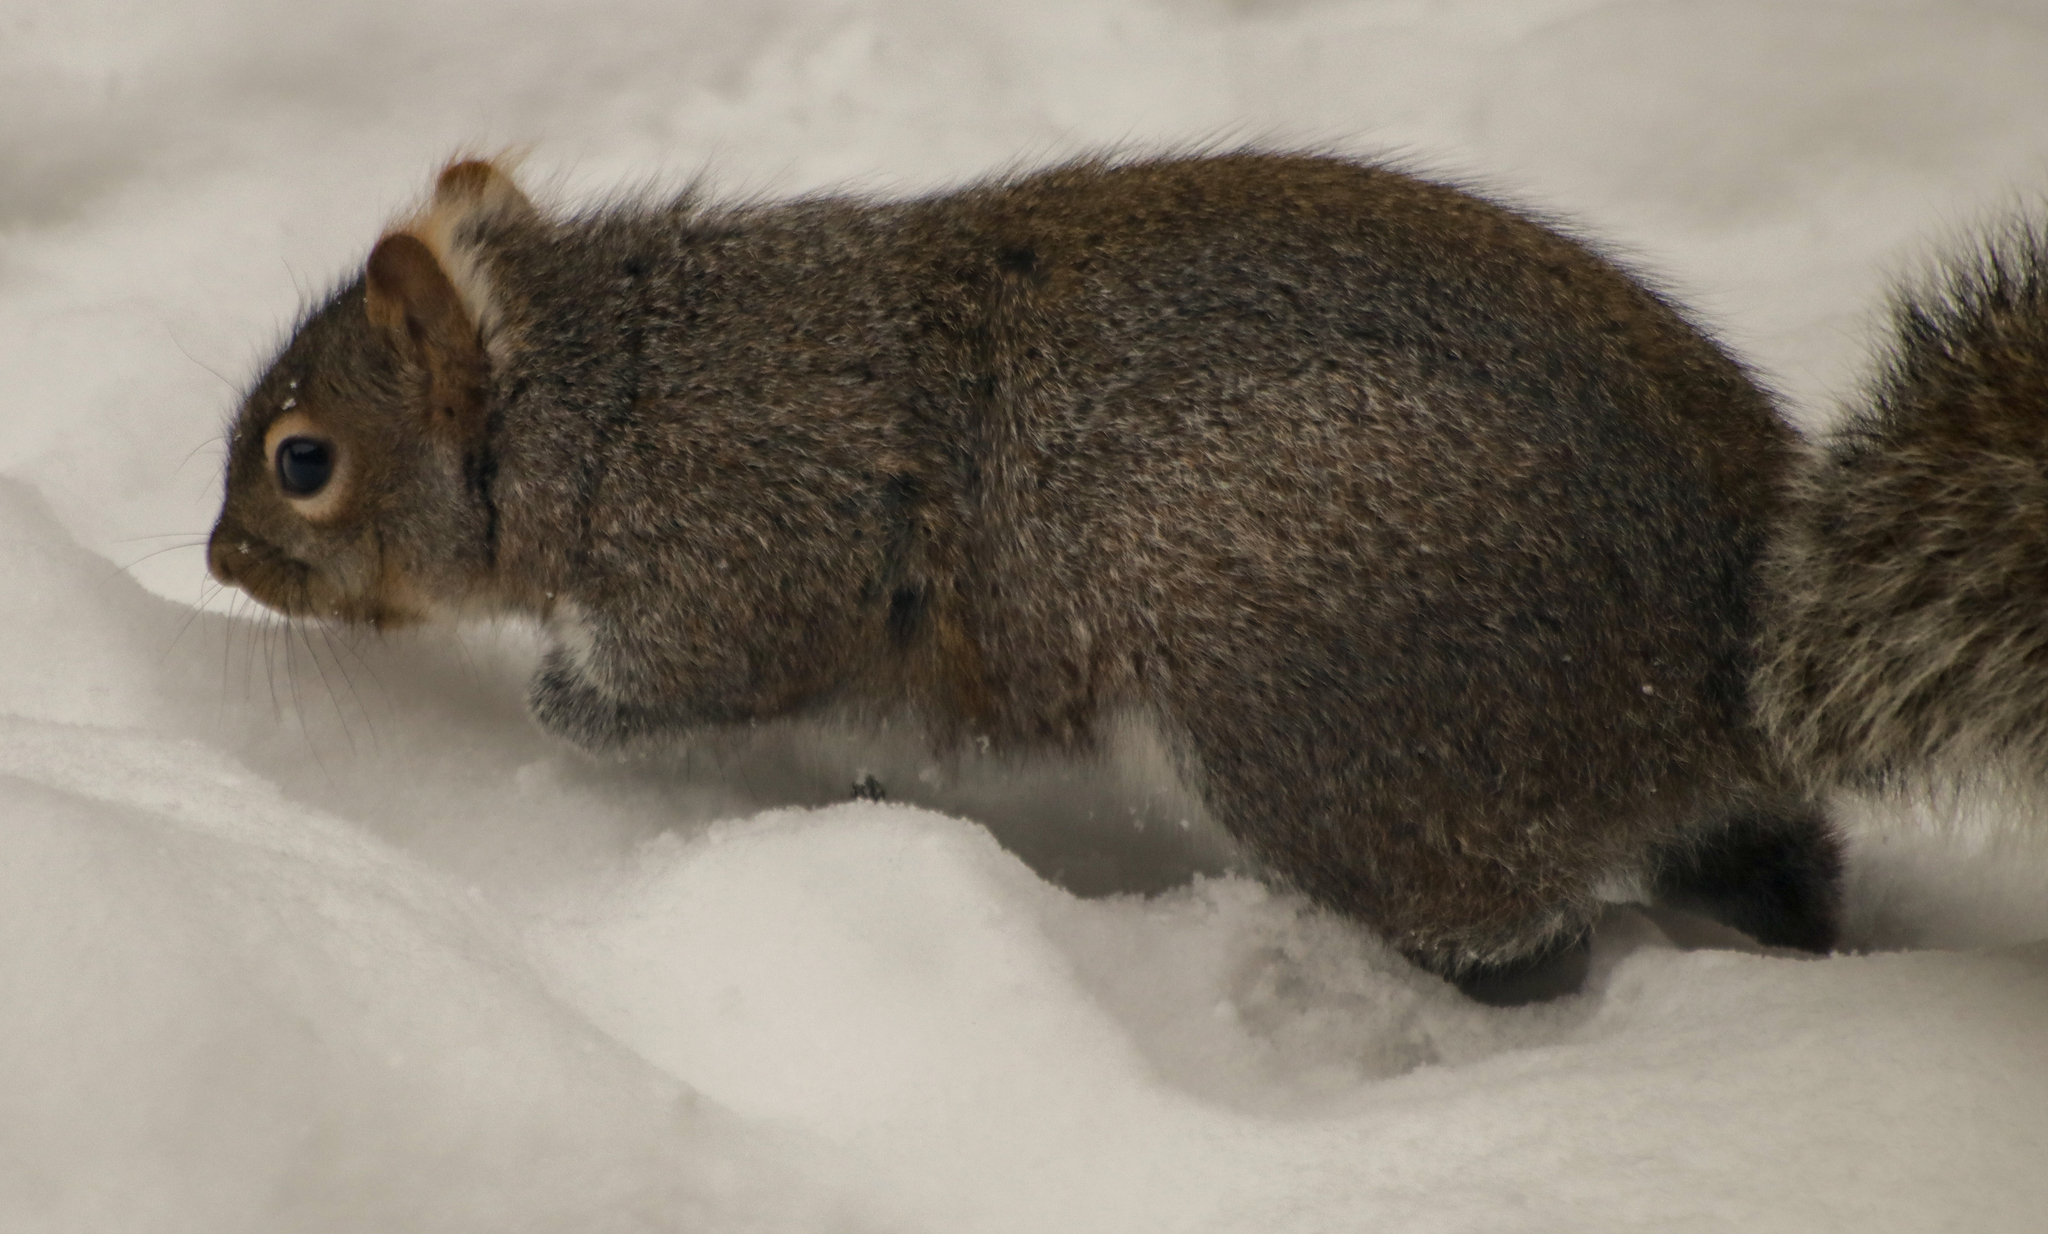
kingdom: Animalia
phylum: Chordata
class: Mammalia
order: Rodentia
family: Sciuridae
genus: Sciurus
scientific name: Sciurus carolinensis
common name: Eastern gray squirrel
